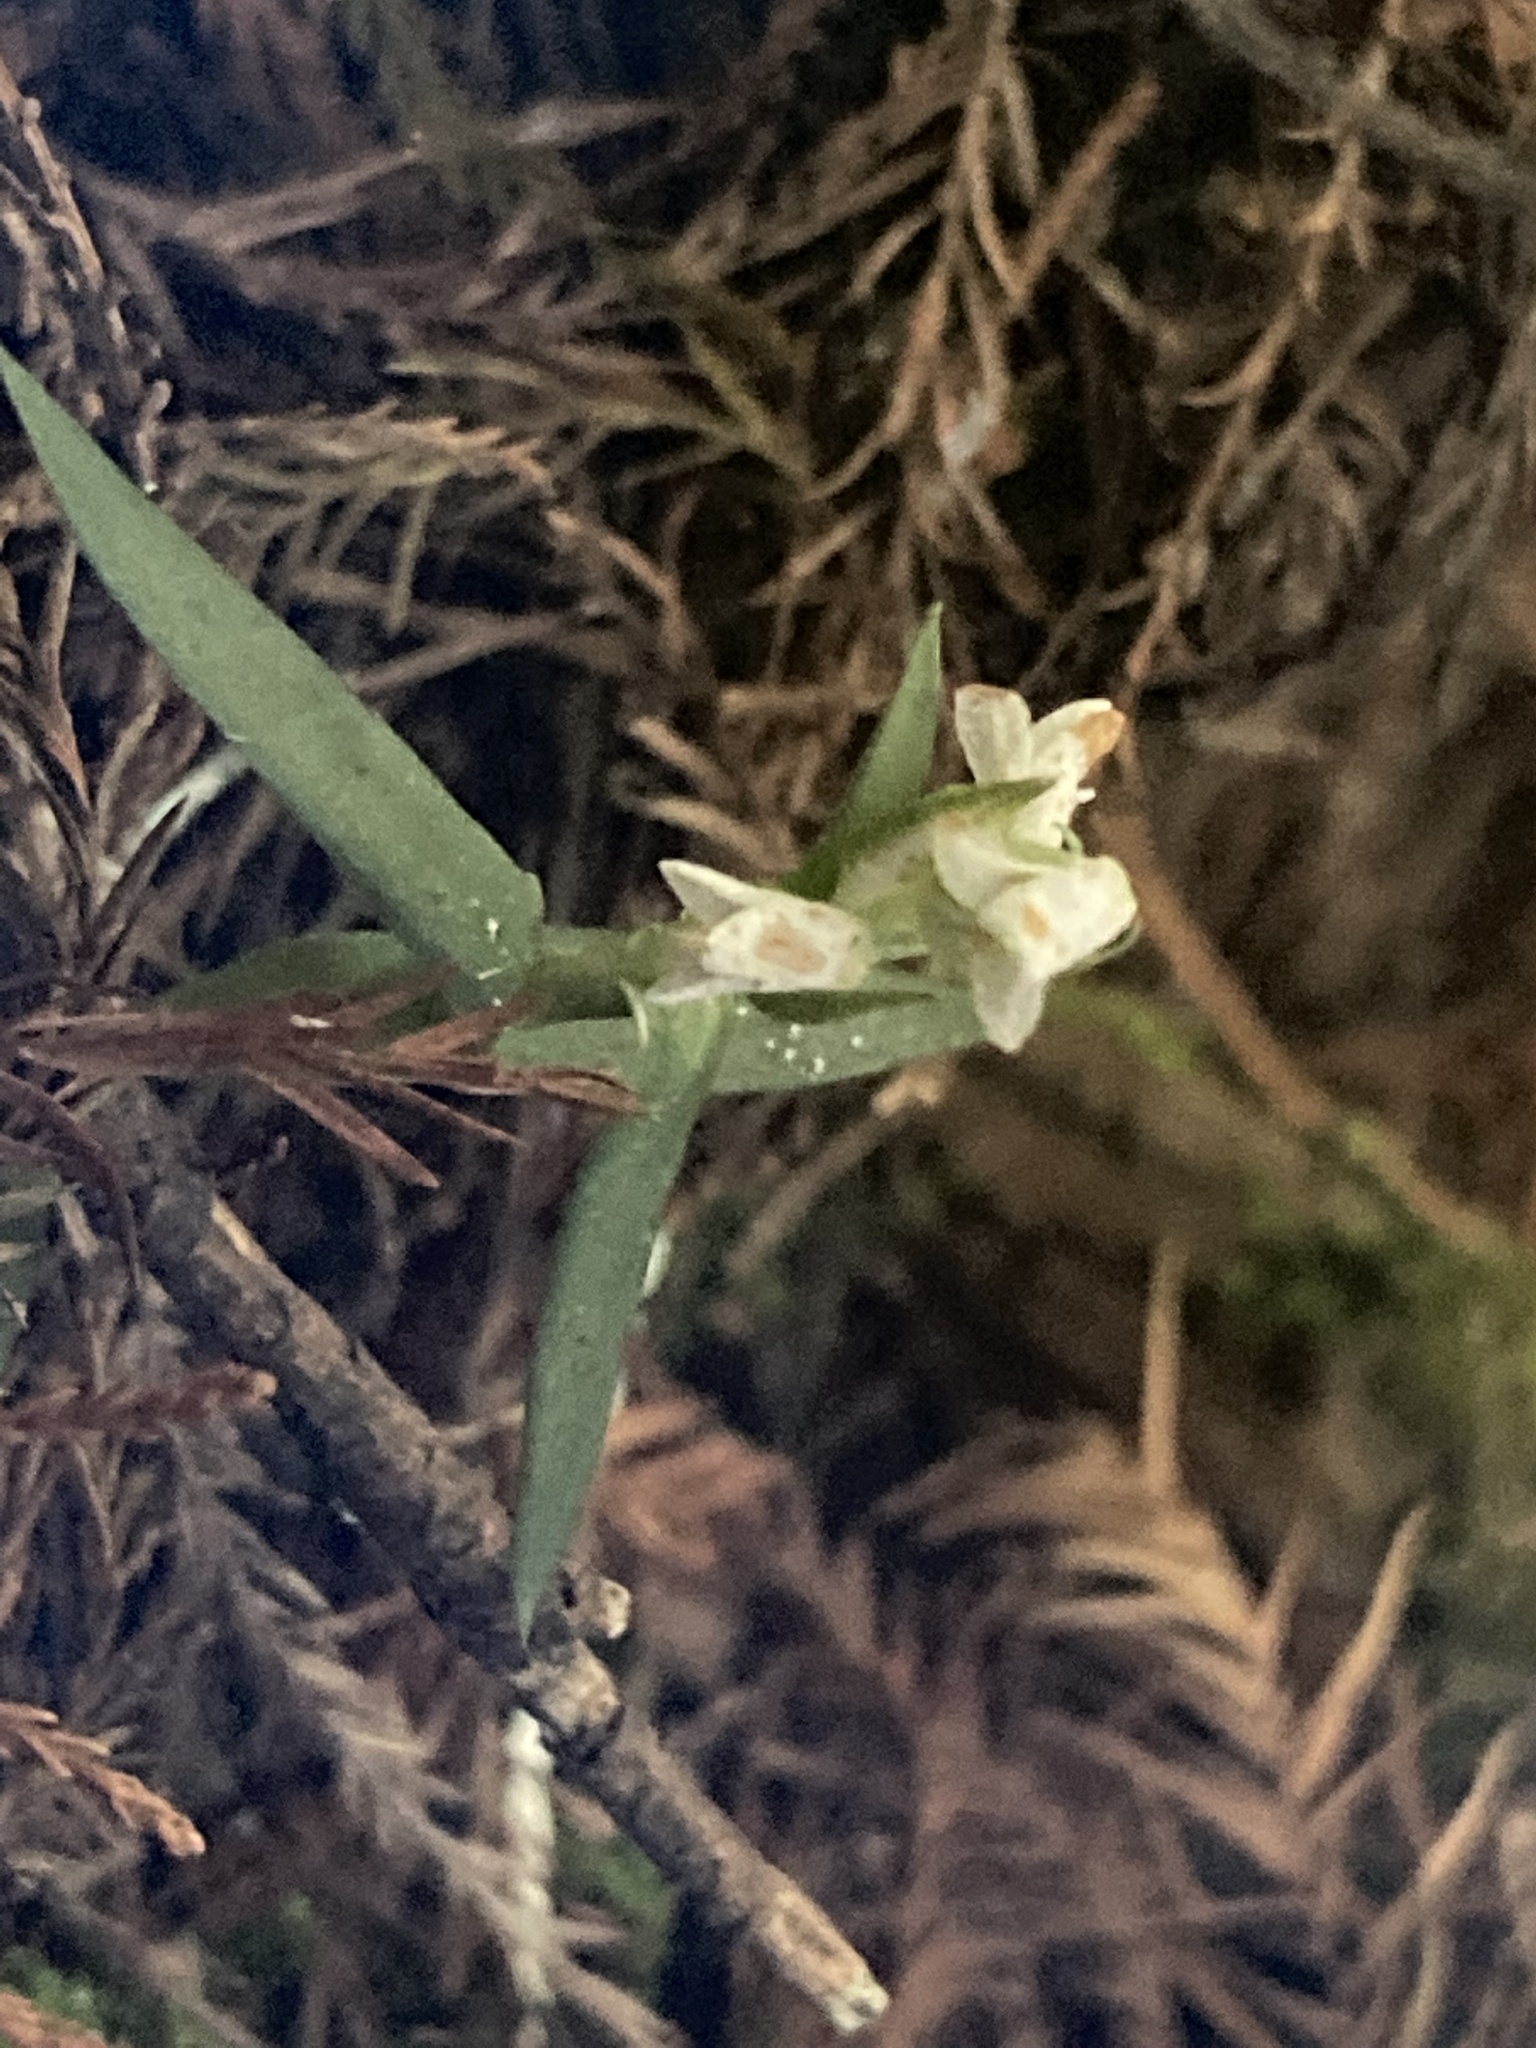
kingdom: Plantae
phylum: Tracheophyta
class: Liliopsida
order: Asparagales
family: Orchidaceae
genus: Zeuxine
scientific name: Zeuxine strateumatica
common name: Soldier's orchid
